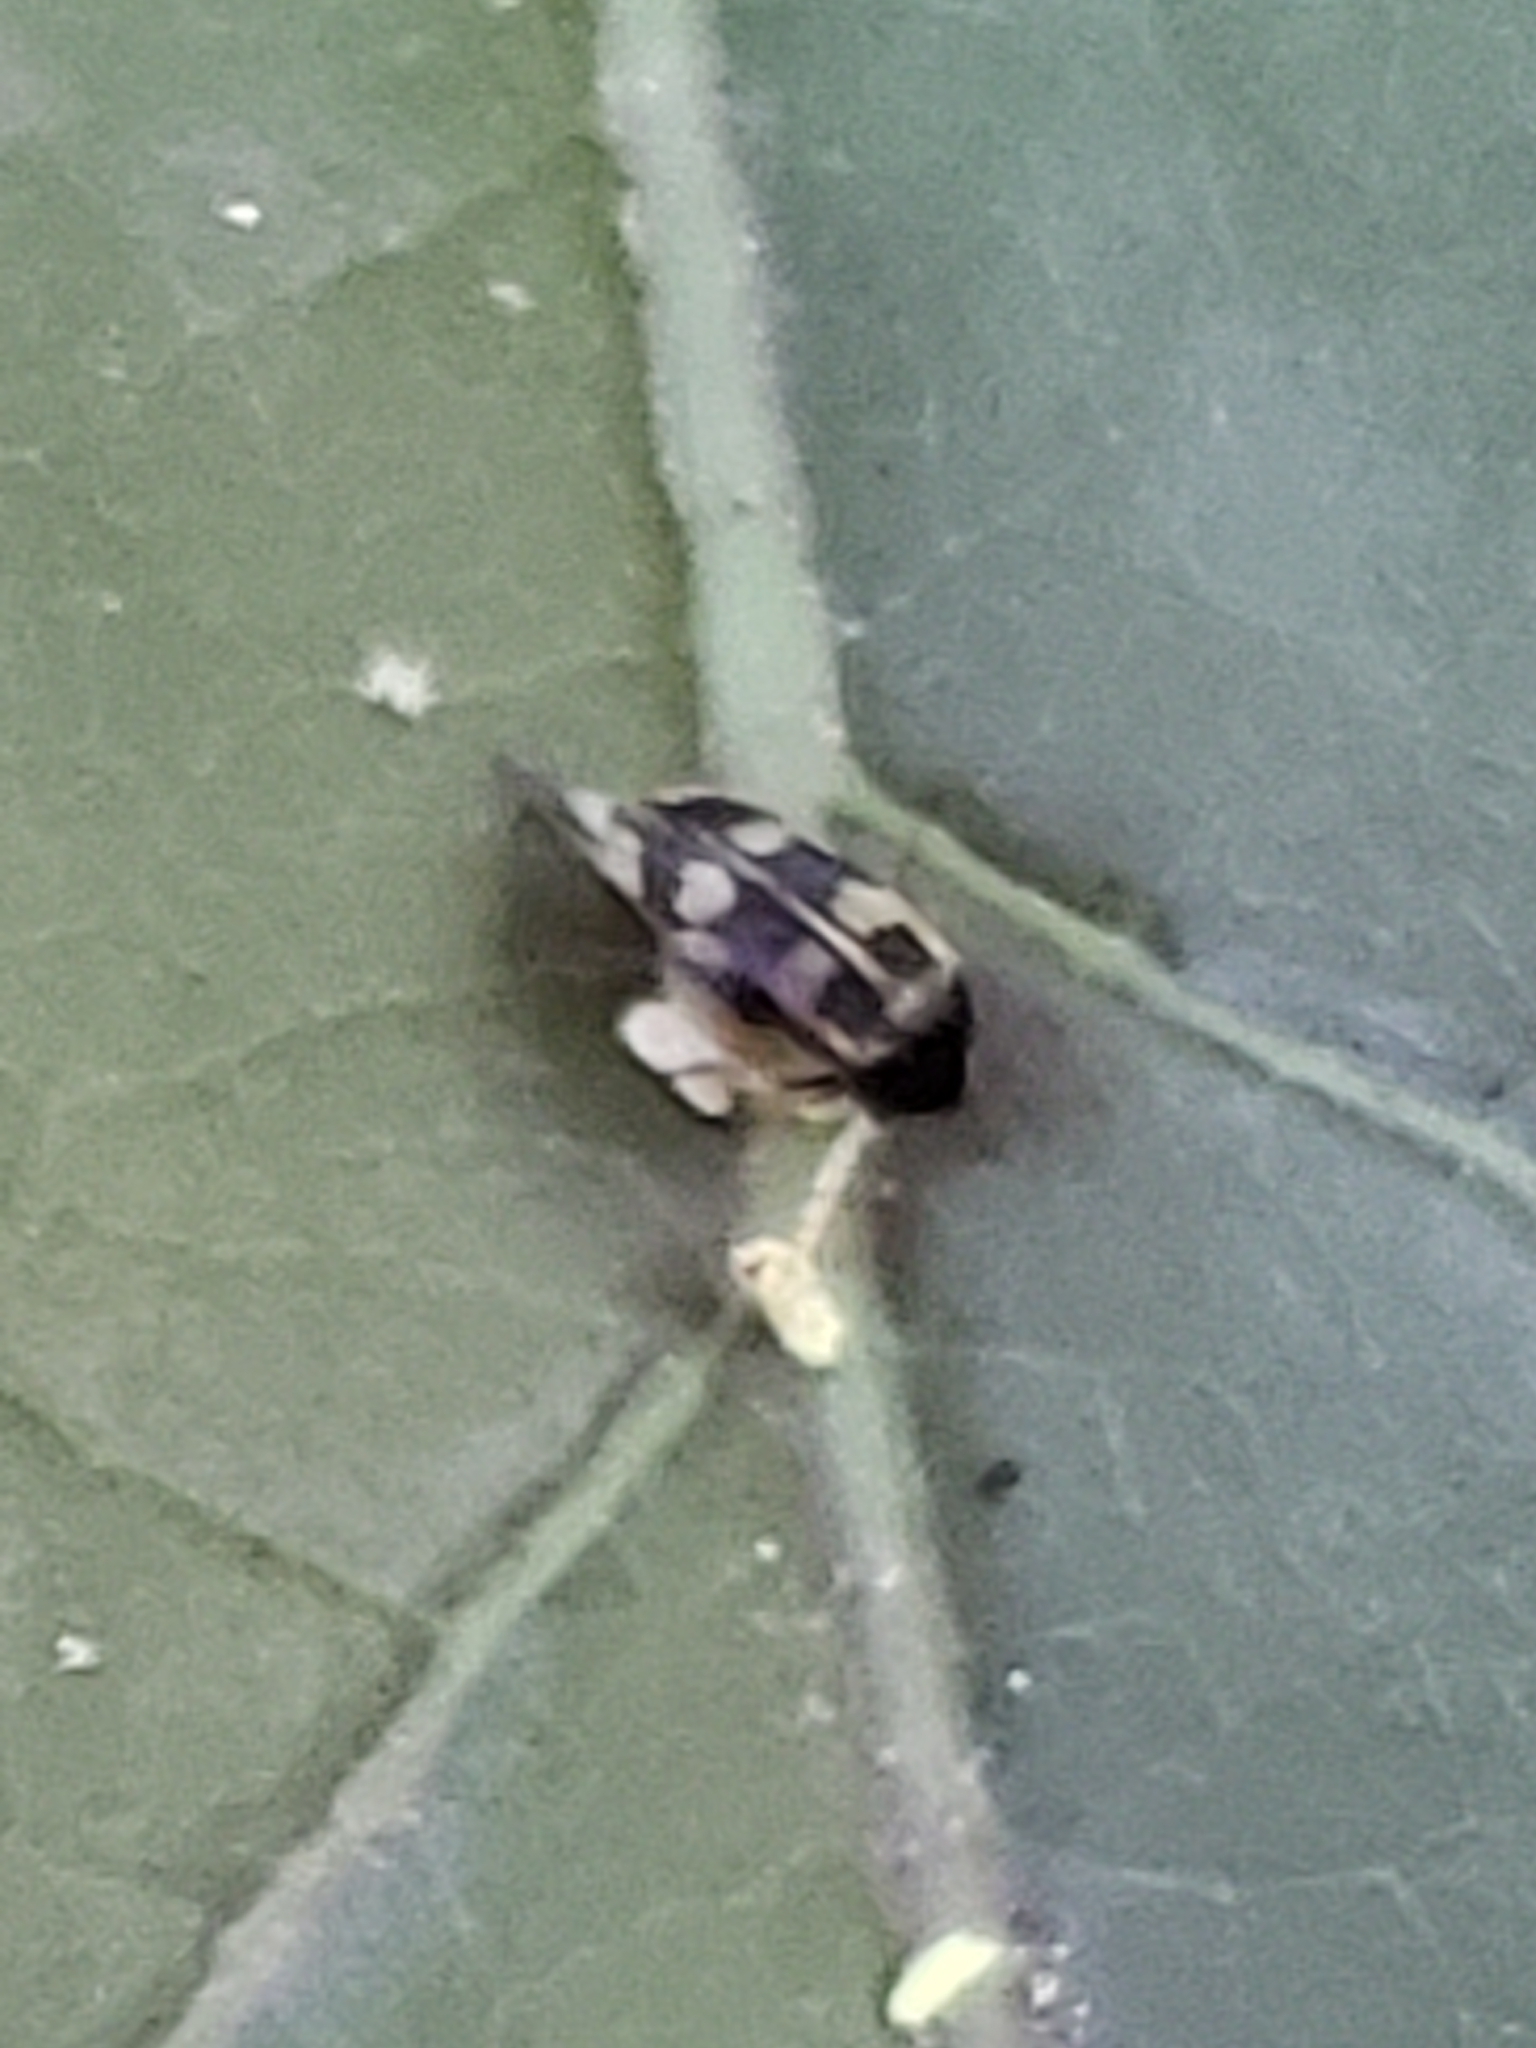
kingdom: Animalia
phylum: Arthropoda
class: Insecta
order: Coleoptera
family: Mordellidae
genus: Falsomordellistena
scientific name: Falsomordellistena pubescens
